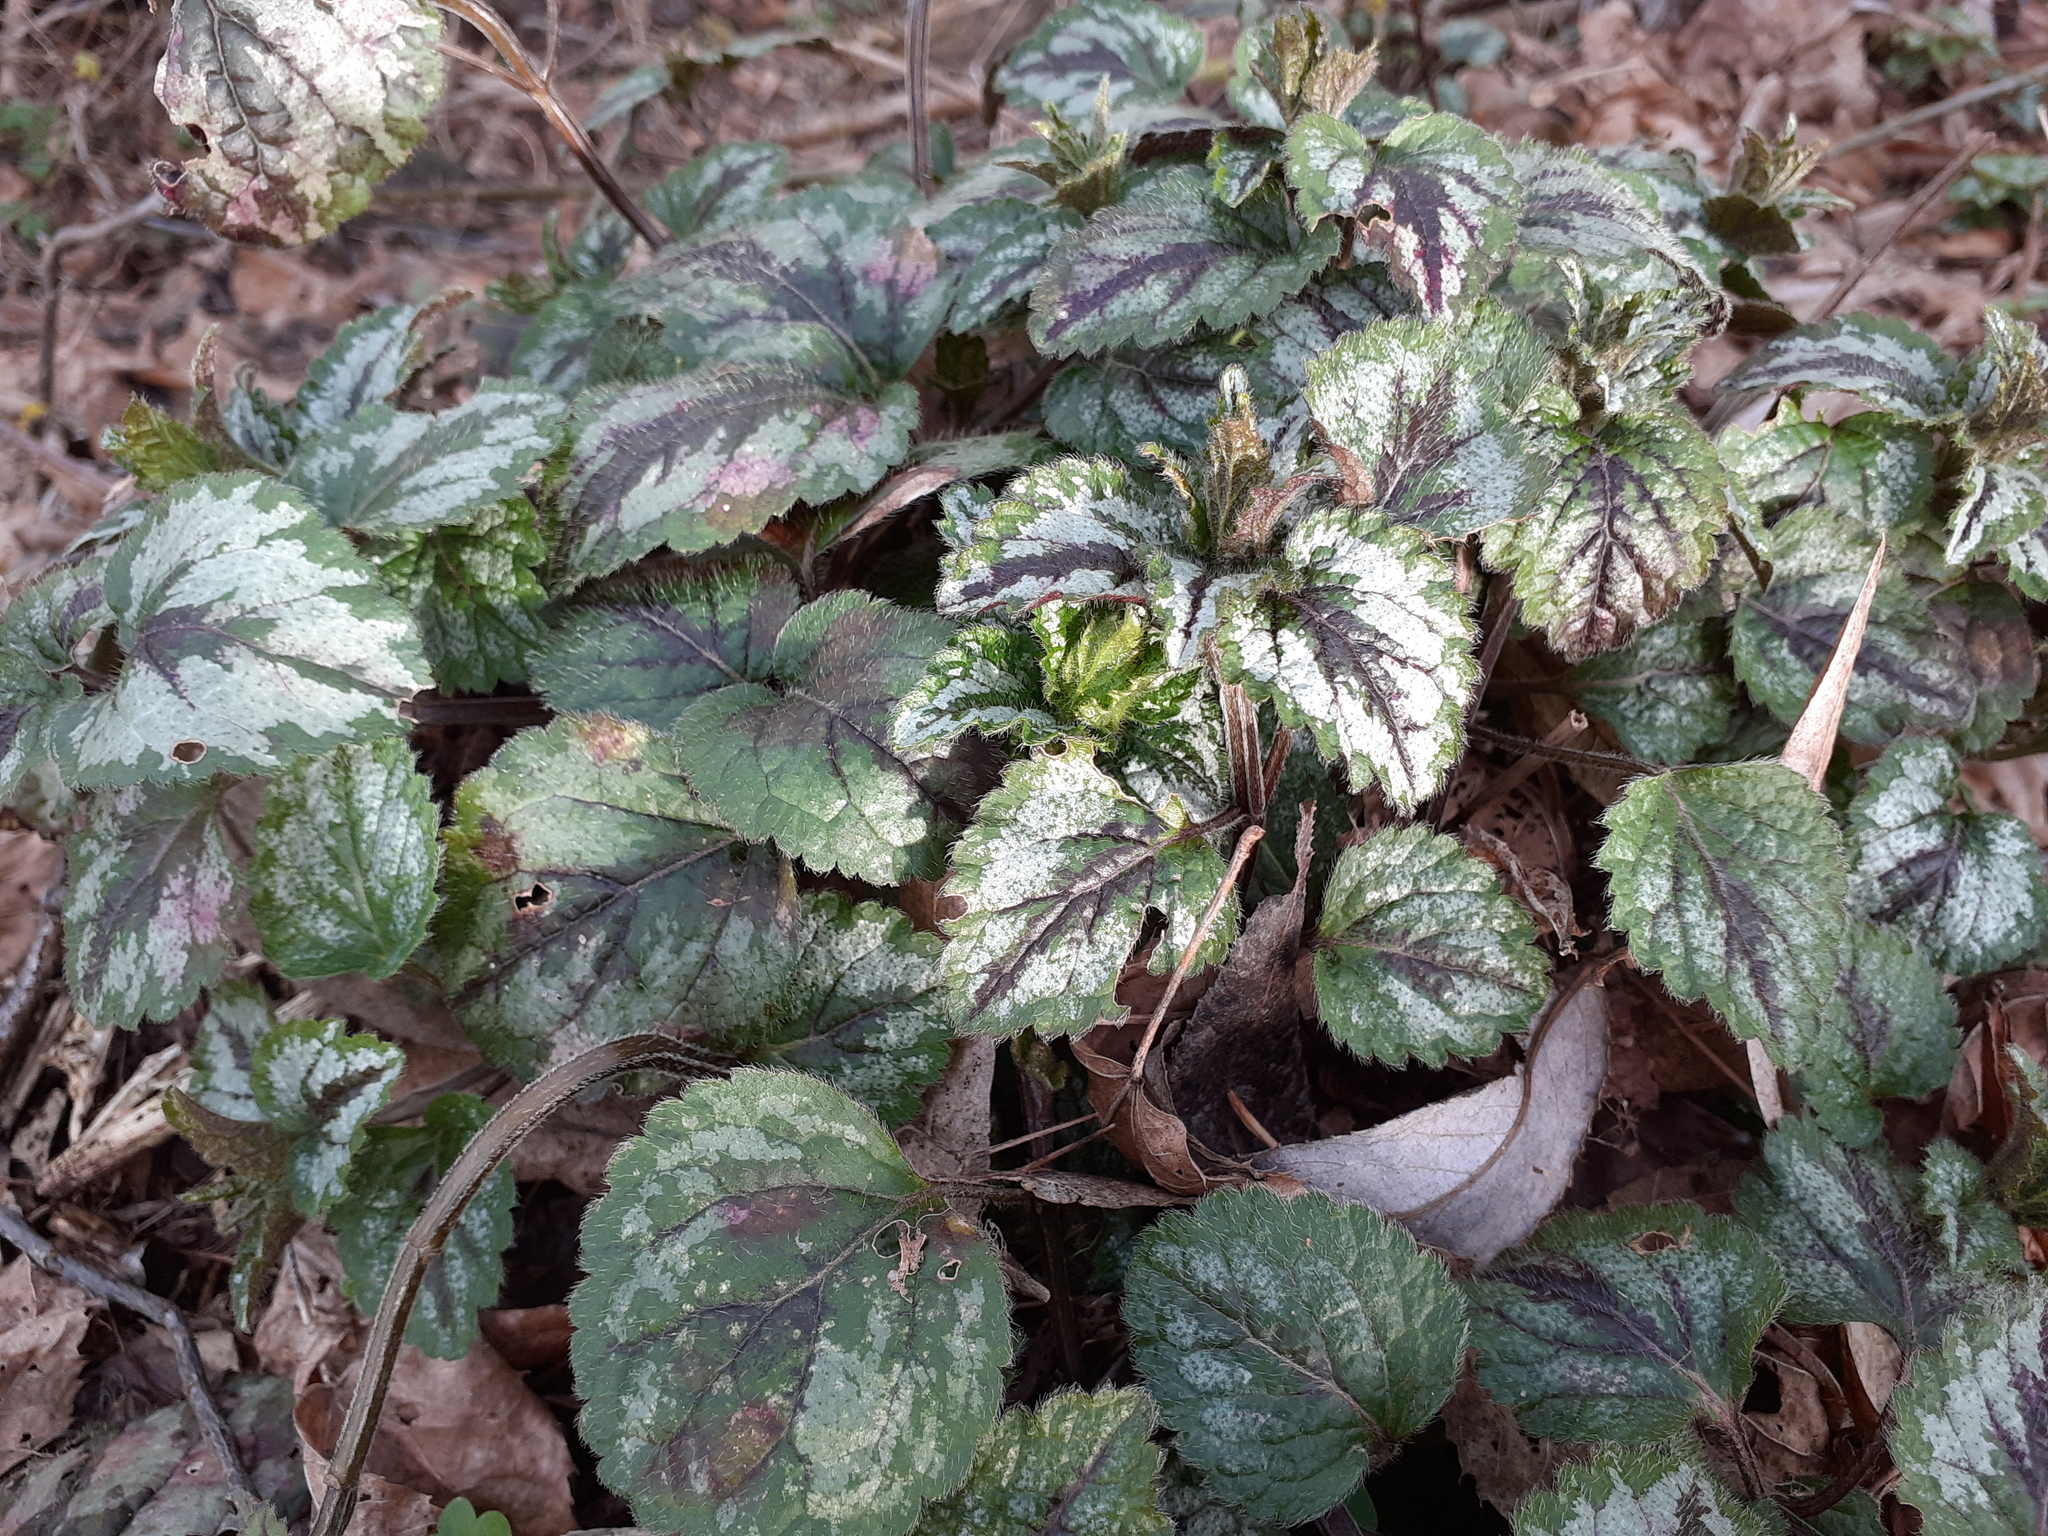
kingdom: Plantae
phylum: Tracheophyta
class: Magnoliopsida
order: Lamiales
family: Lamiaceae
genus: Lamium
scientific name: Lamium galeobdolon
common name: Yellow archangel
